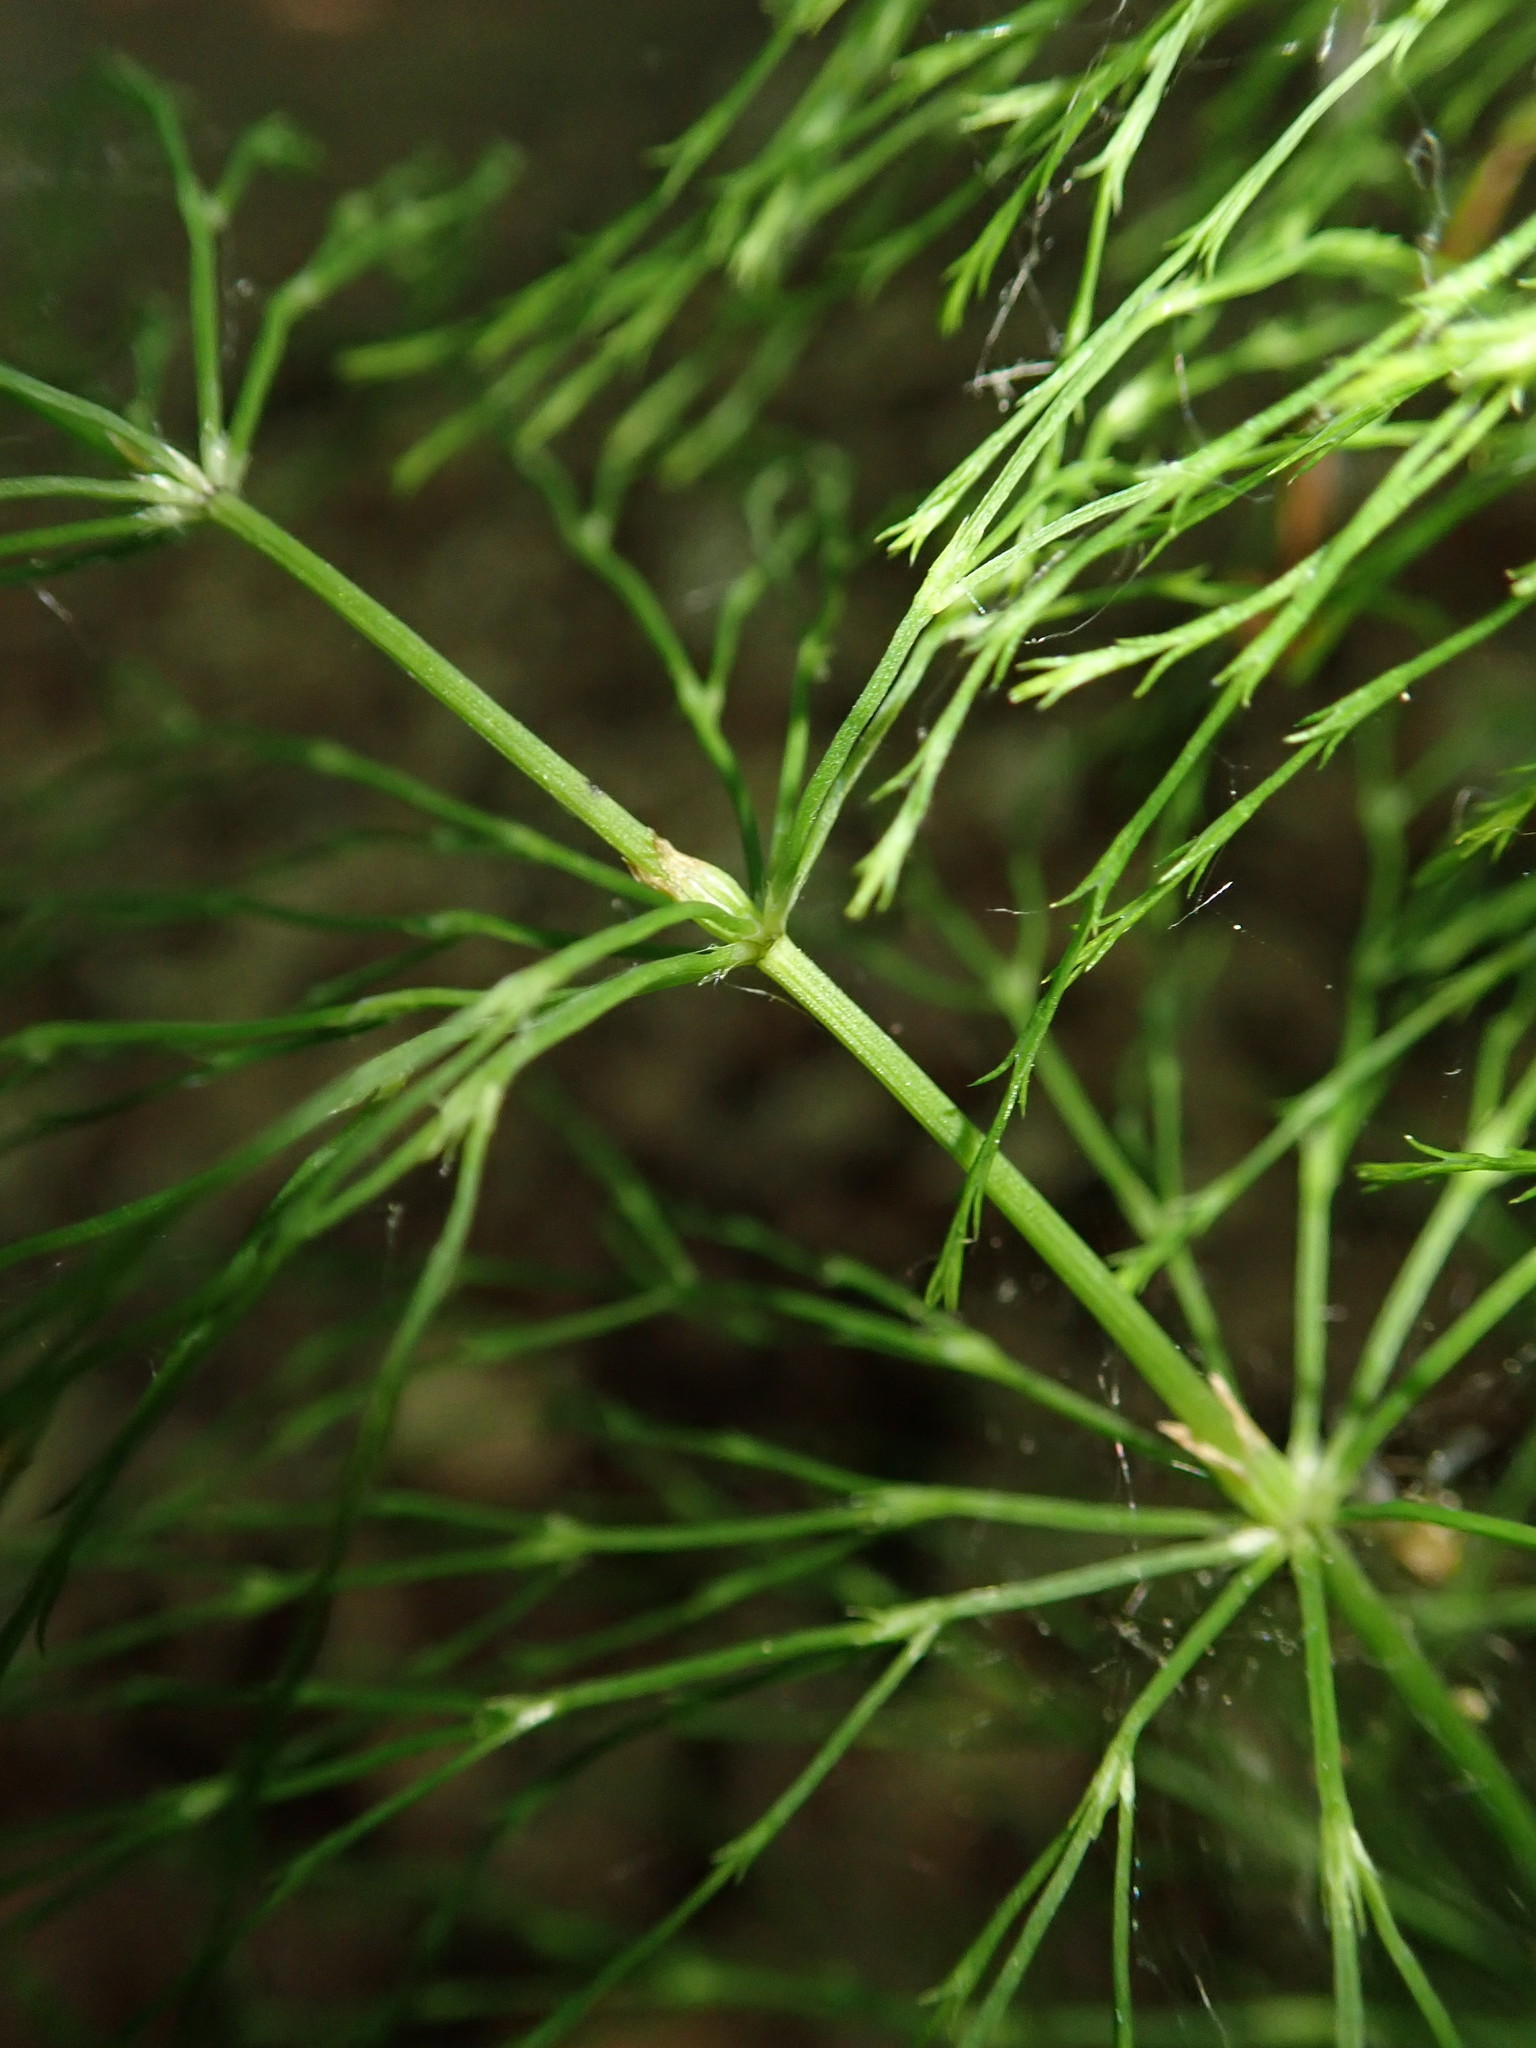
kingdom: Plantae
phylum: Tracheophyta
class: Polypodiopsida
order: Equisetales
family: Equisetaceae
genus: Equisetum
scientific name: Equisetum sylvaticum
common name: Wood horsetail
